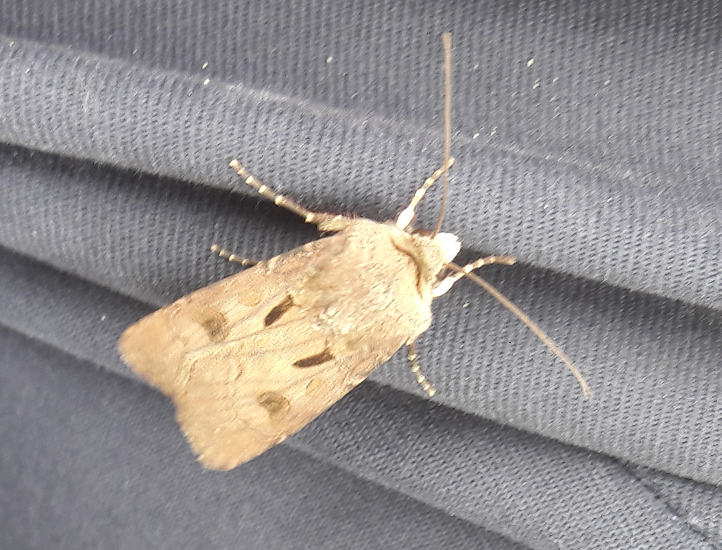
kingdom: Animalia
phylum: Arthropoda
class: Insecta
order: Lepidoptera
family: Noctuidae
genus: Agrotis
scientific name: Agrotis exclamationis
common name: Heart and dart
